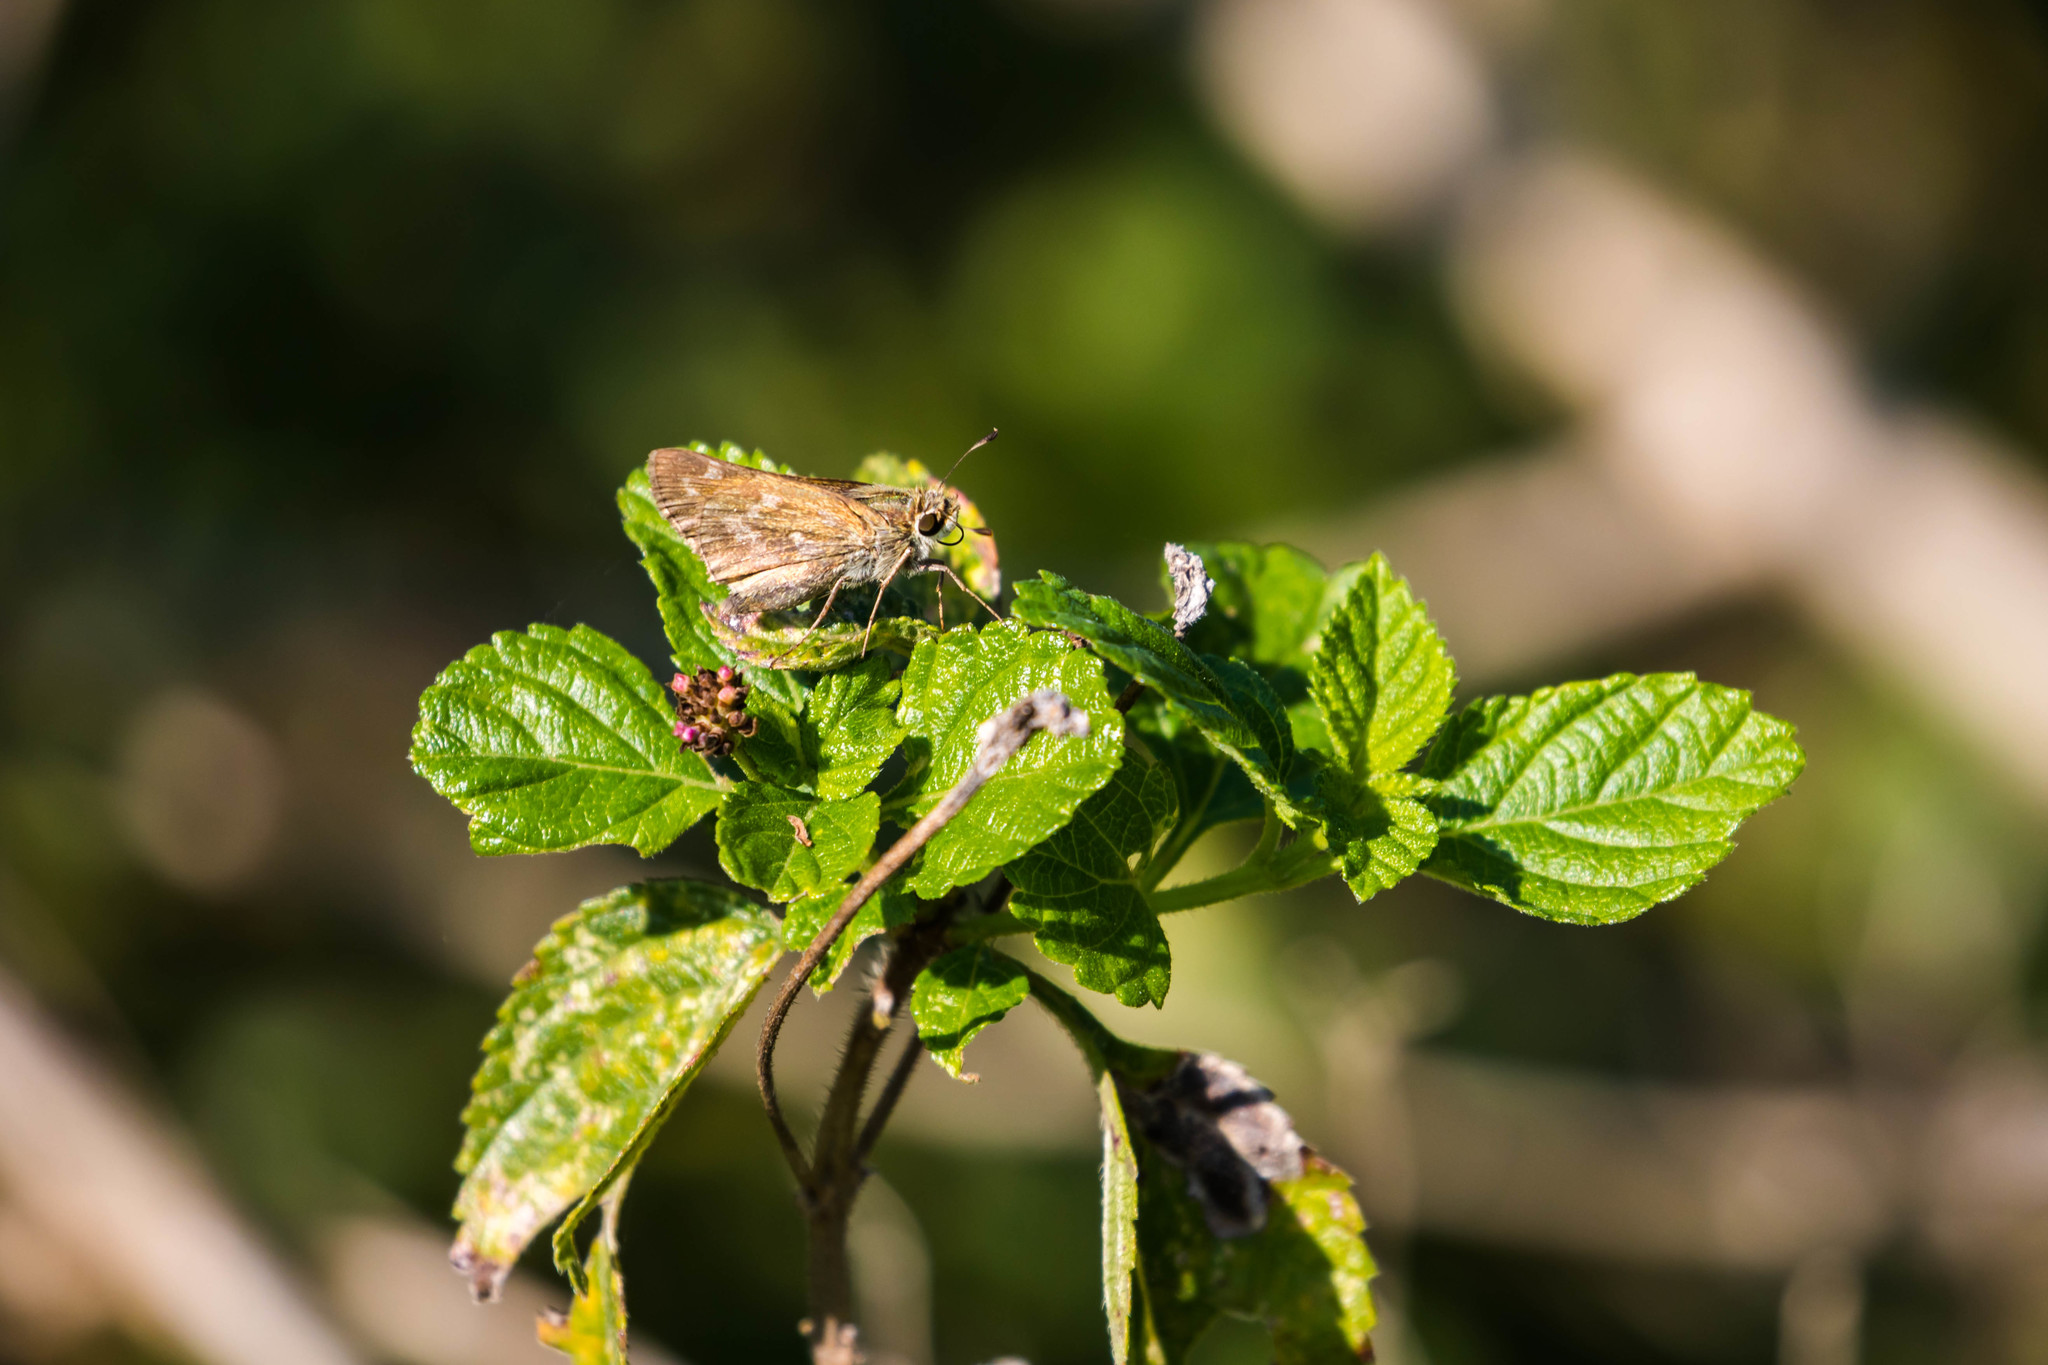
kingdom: Animalia
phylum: Arthropoda
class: Insecta
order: Lepidoptera
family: Hesperiidae
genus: Atalopedes
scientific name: Atalopedes
